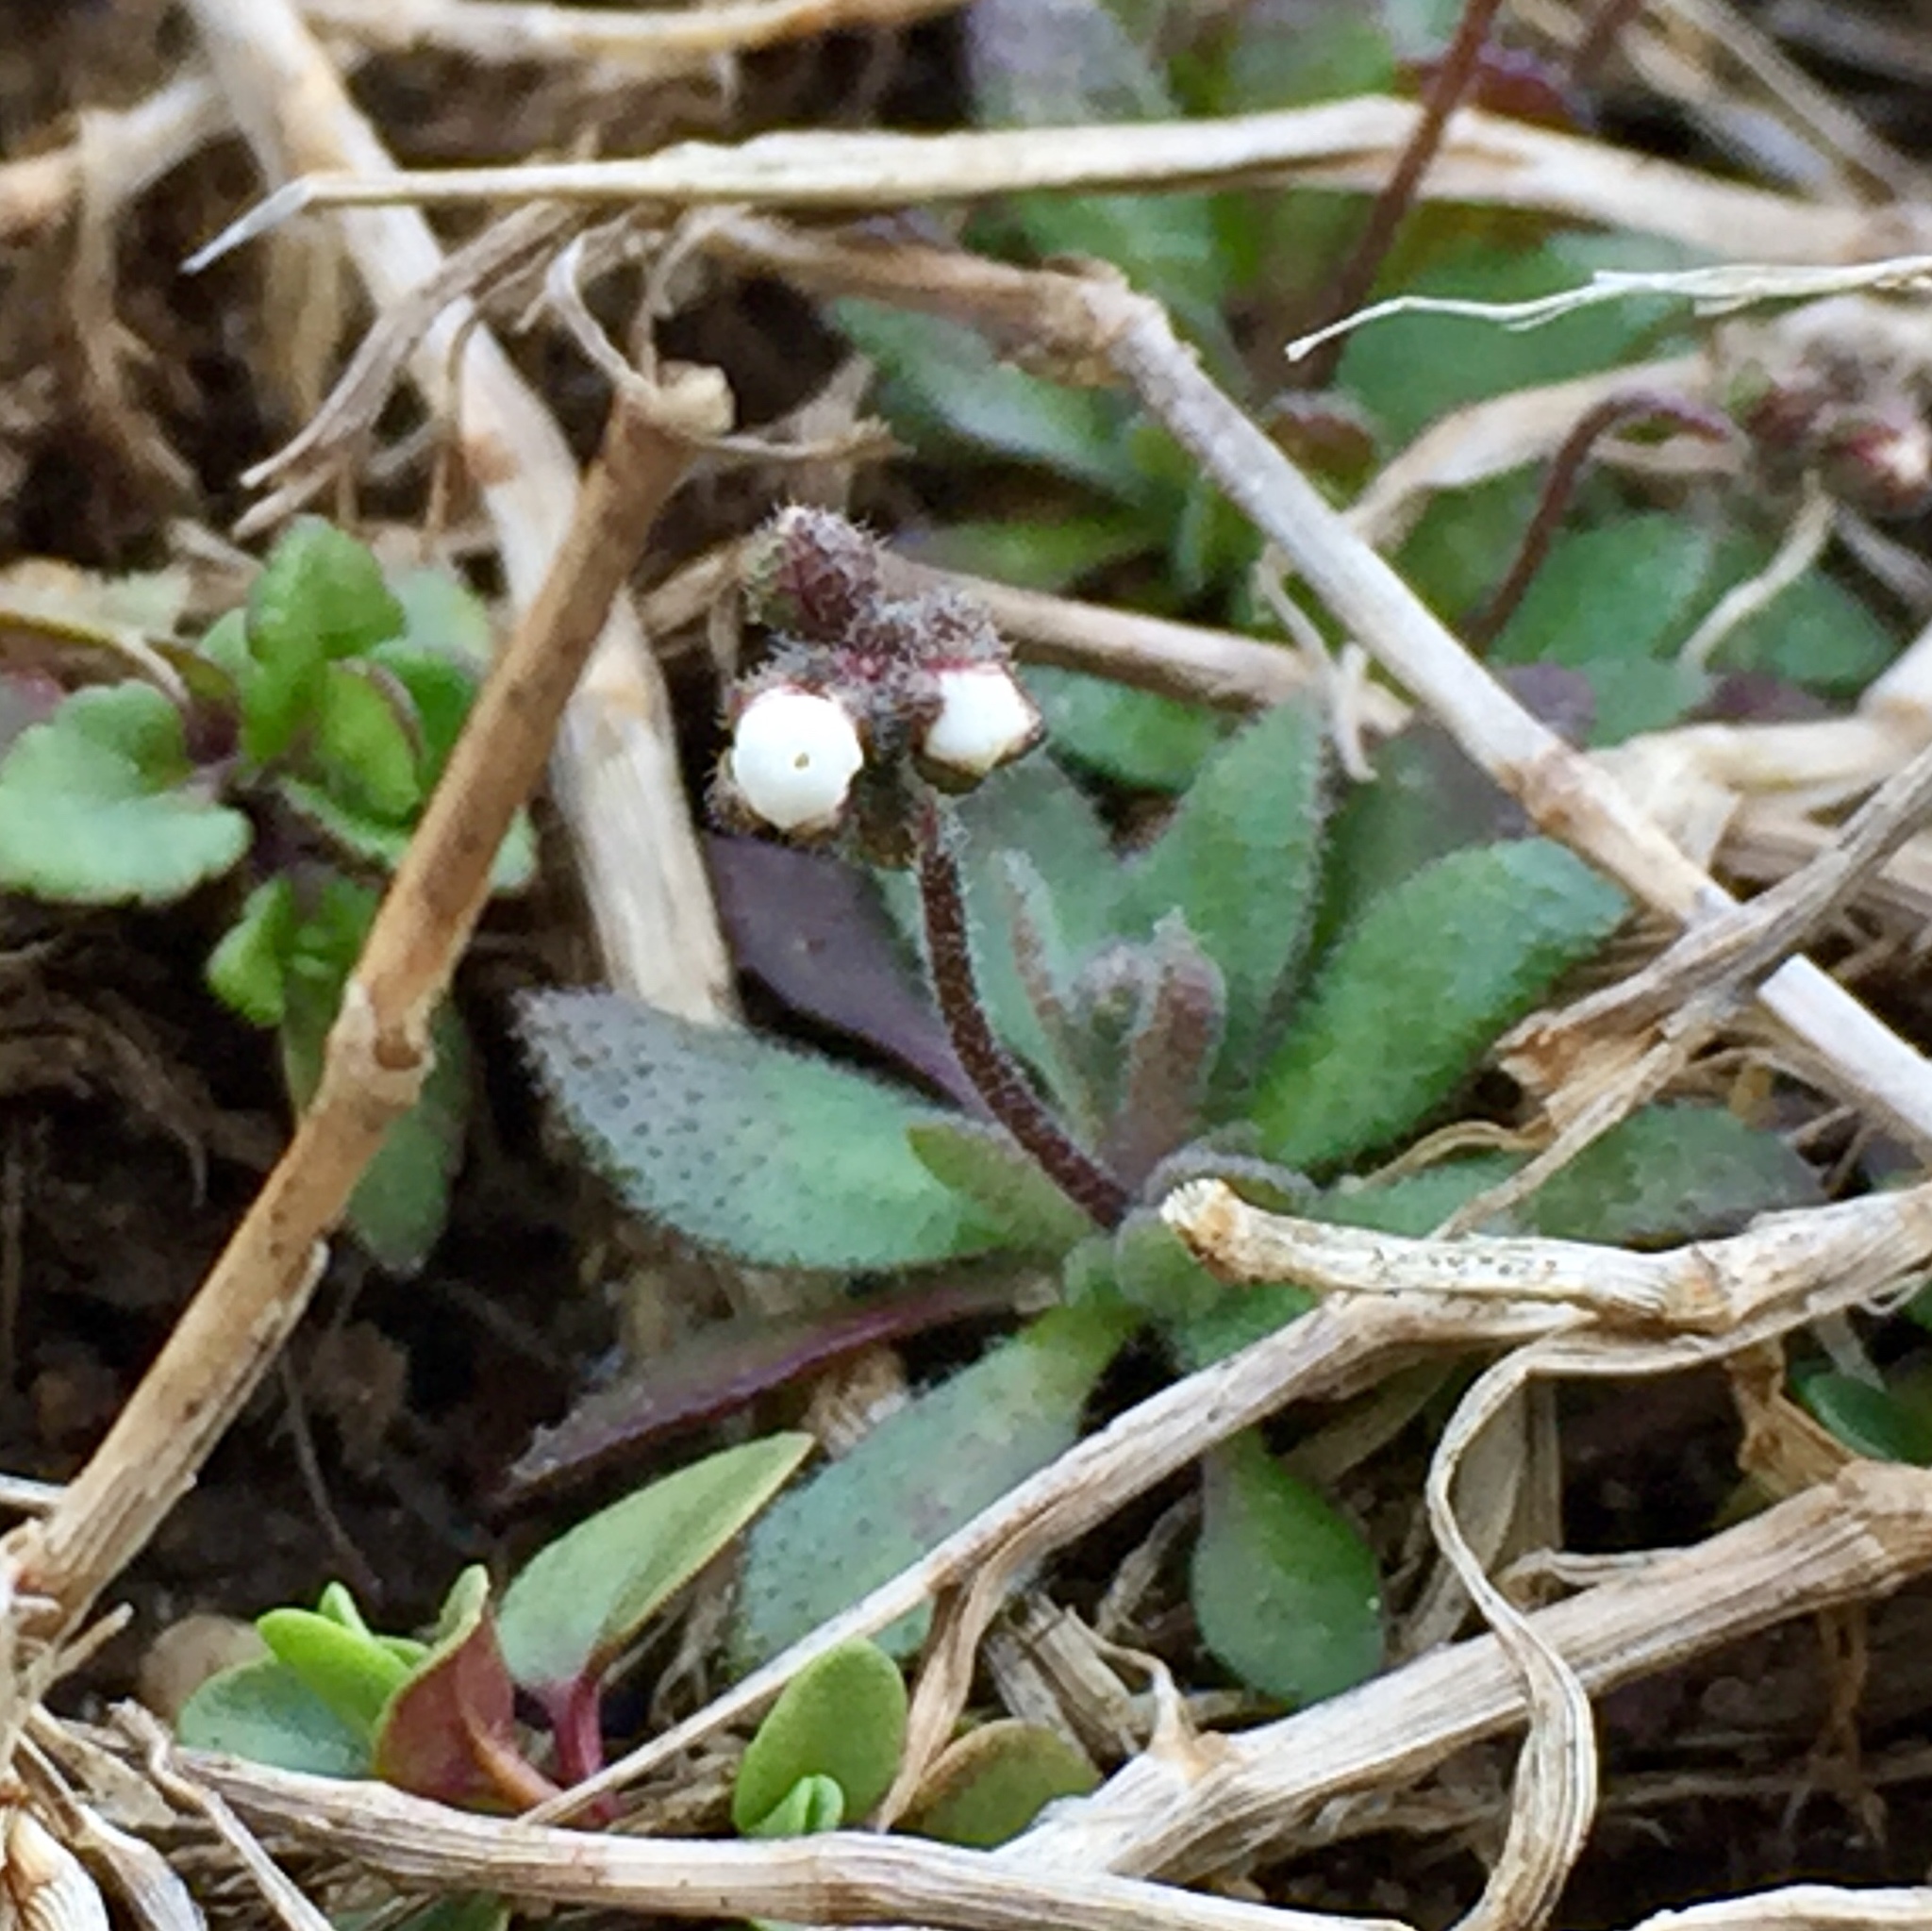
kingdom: Plantae
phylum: Tracheophyta
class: Magnoliopsida
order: Brassicales
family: Brassicaceae
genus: Draba
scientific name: Draba verna
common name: Spring draba
